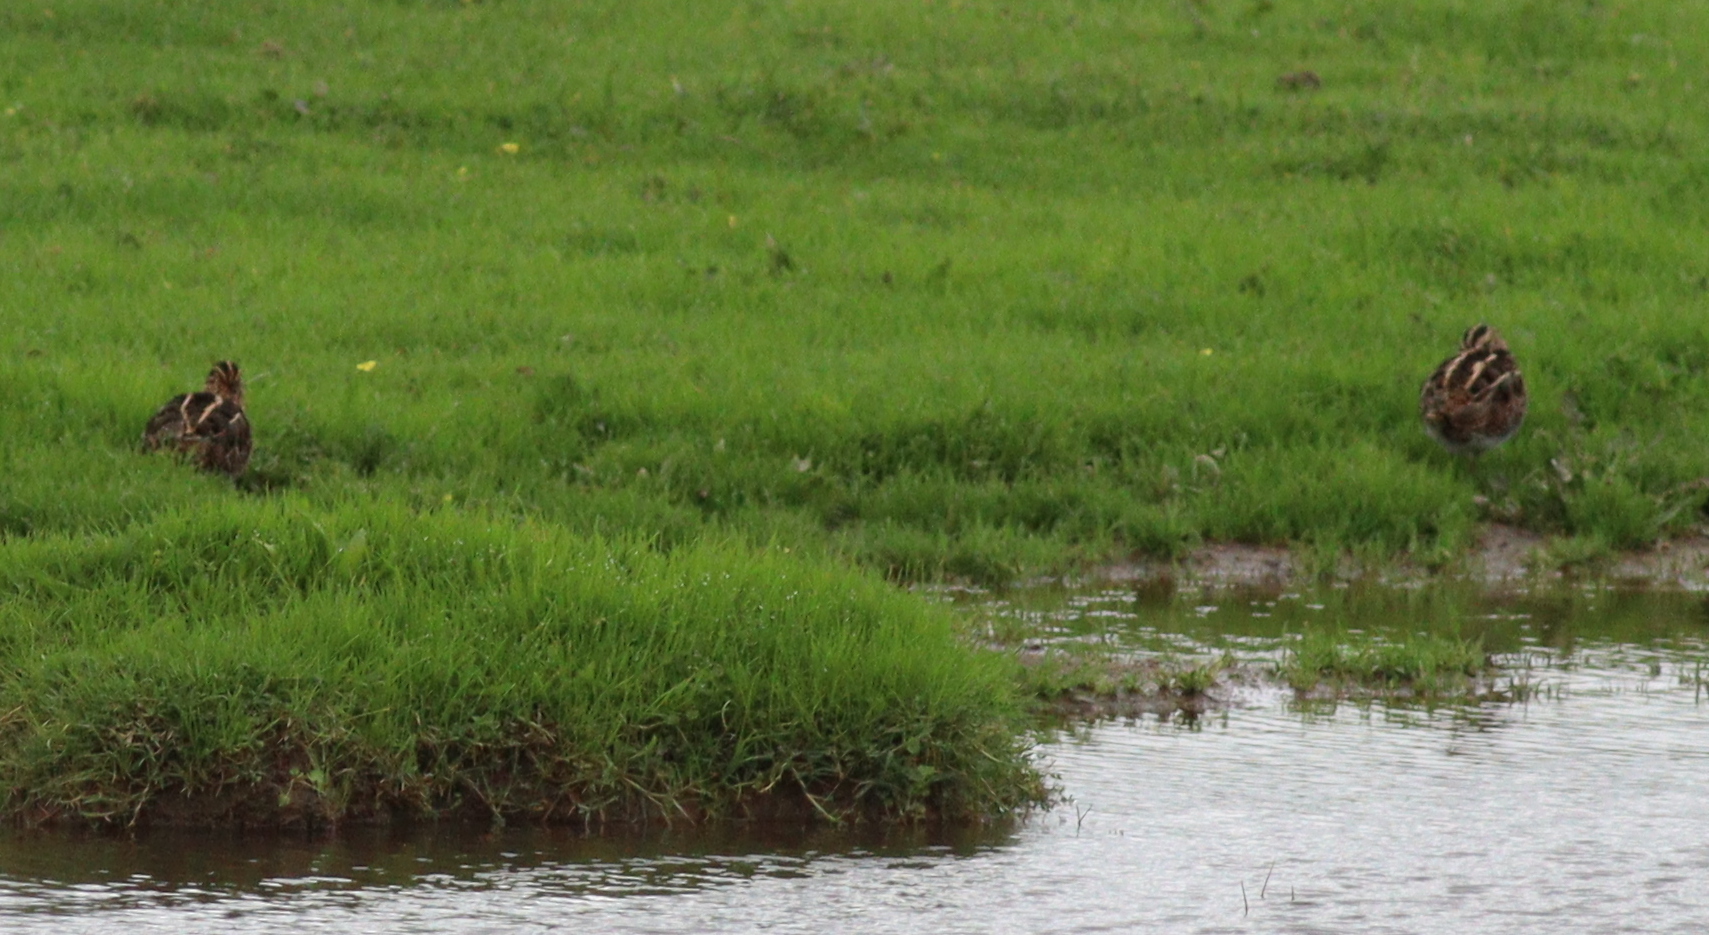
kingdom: Animalia
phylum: Chordata
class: Aves
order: Charadriiformes
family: Scolopacidae
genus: Gallinago
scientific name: Gallinago gallinago
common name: Common snipe
